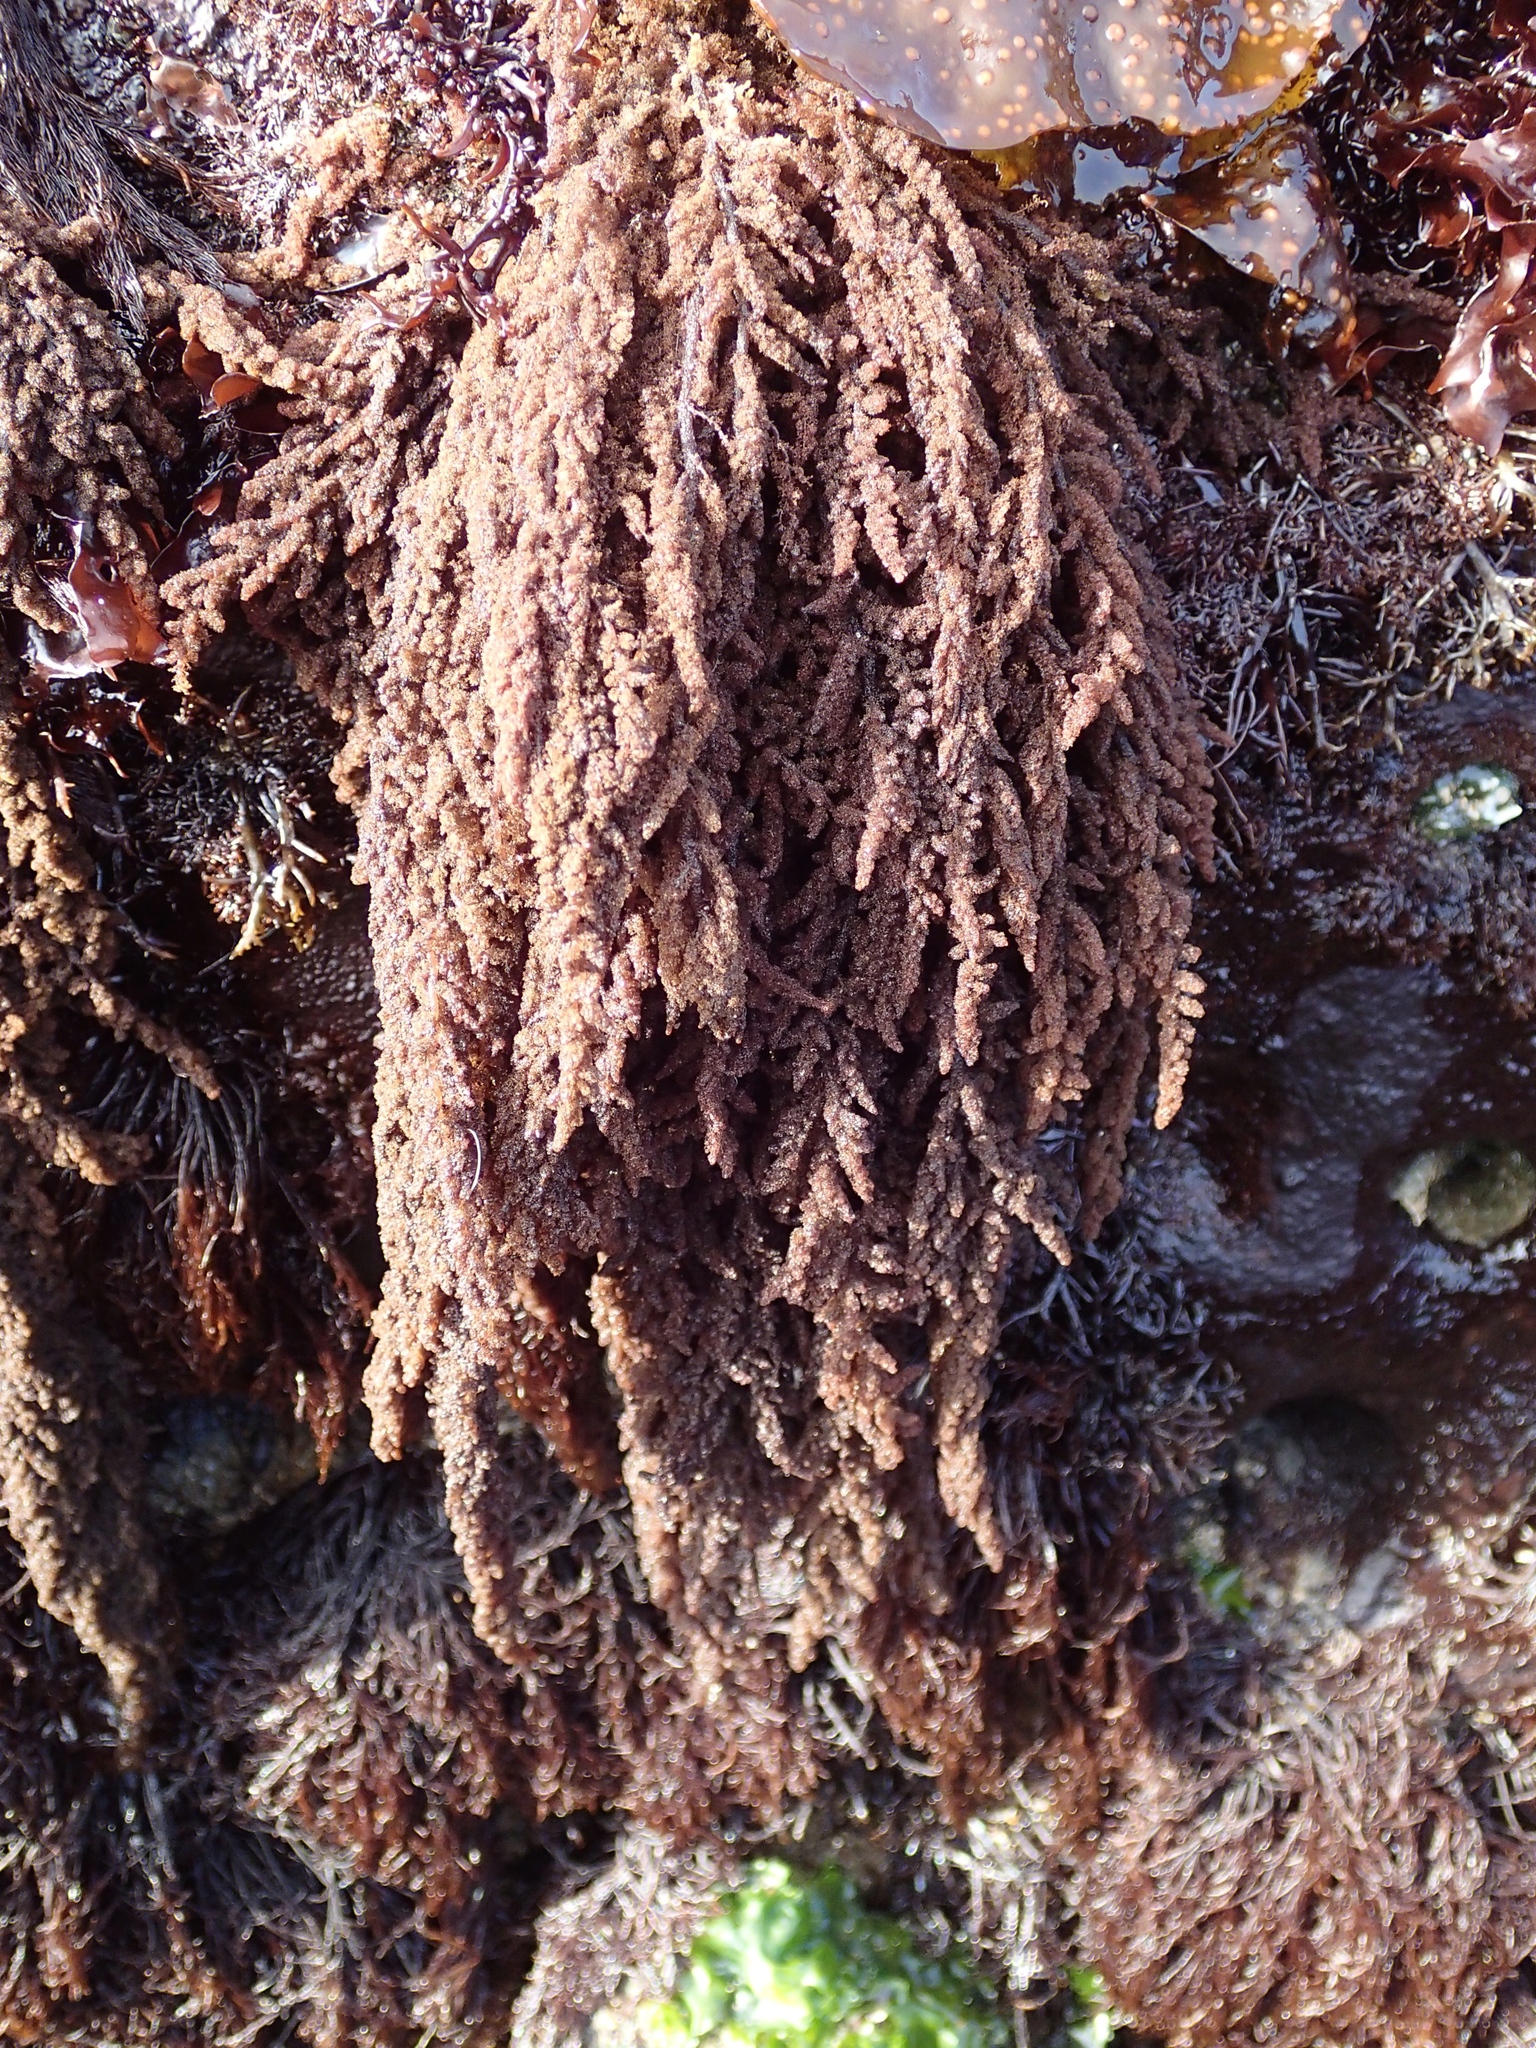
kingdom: Plantae
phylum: Rhodophyta
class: Florideophyceae
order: Ceramiales
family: Callithamniaceae
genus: Callithamnion
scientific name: Callithamnion pikeanum
